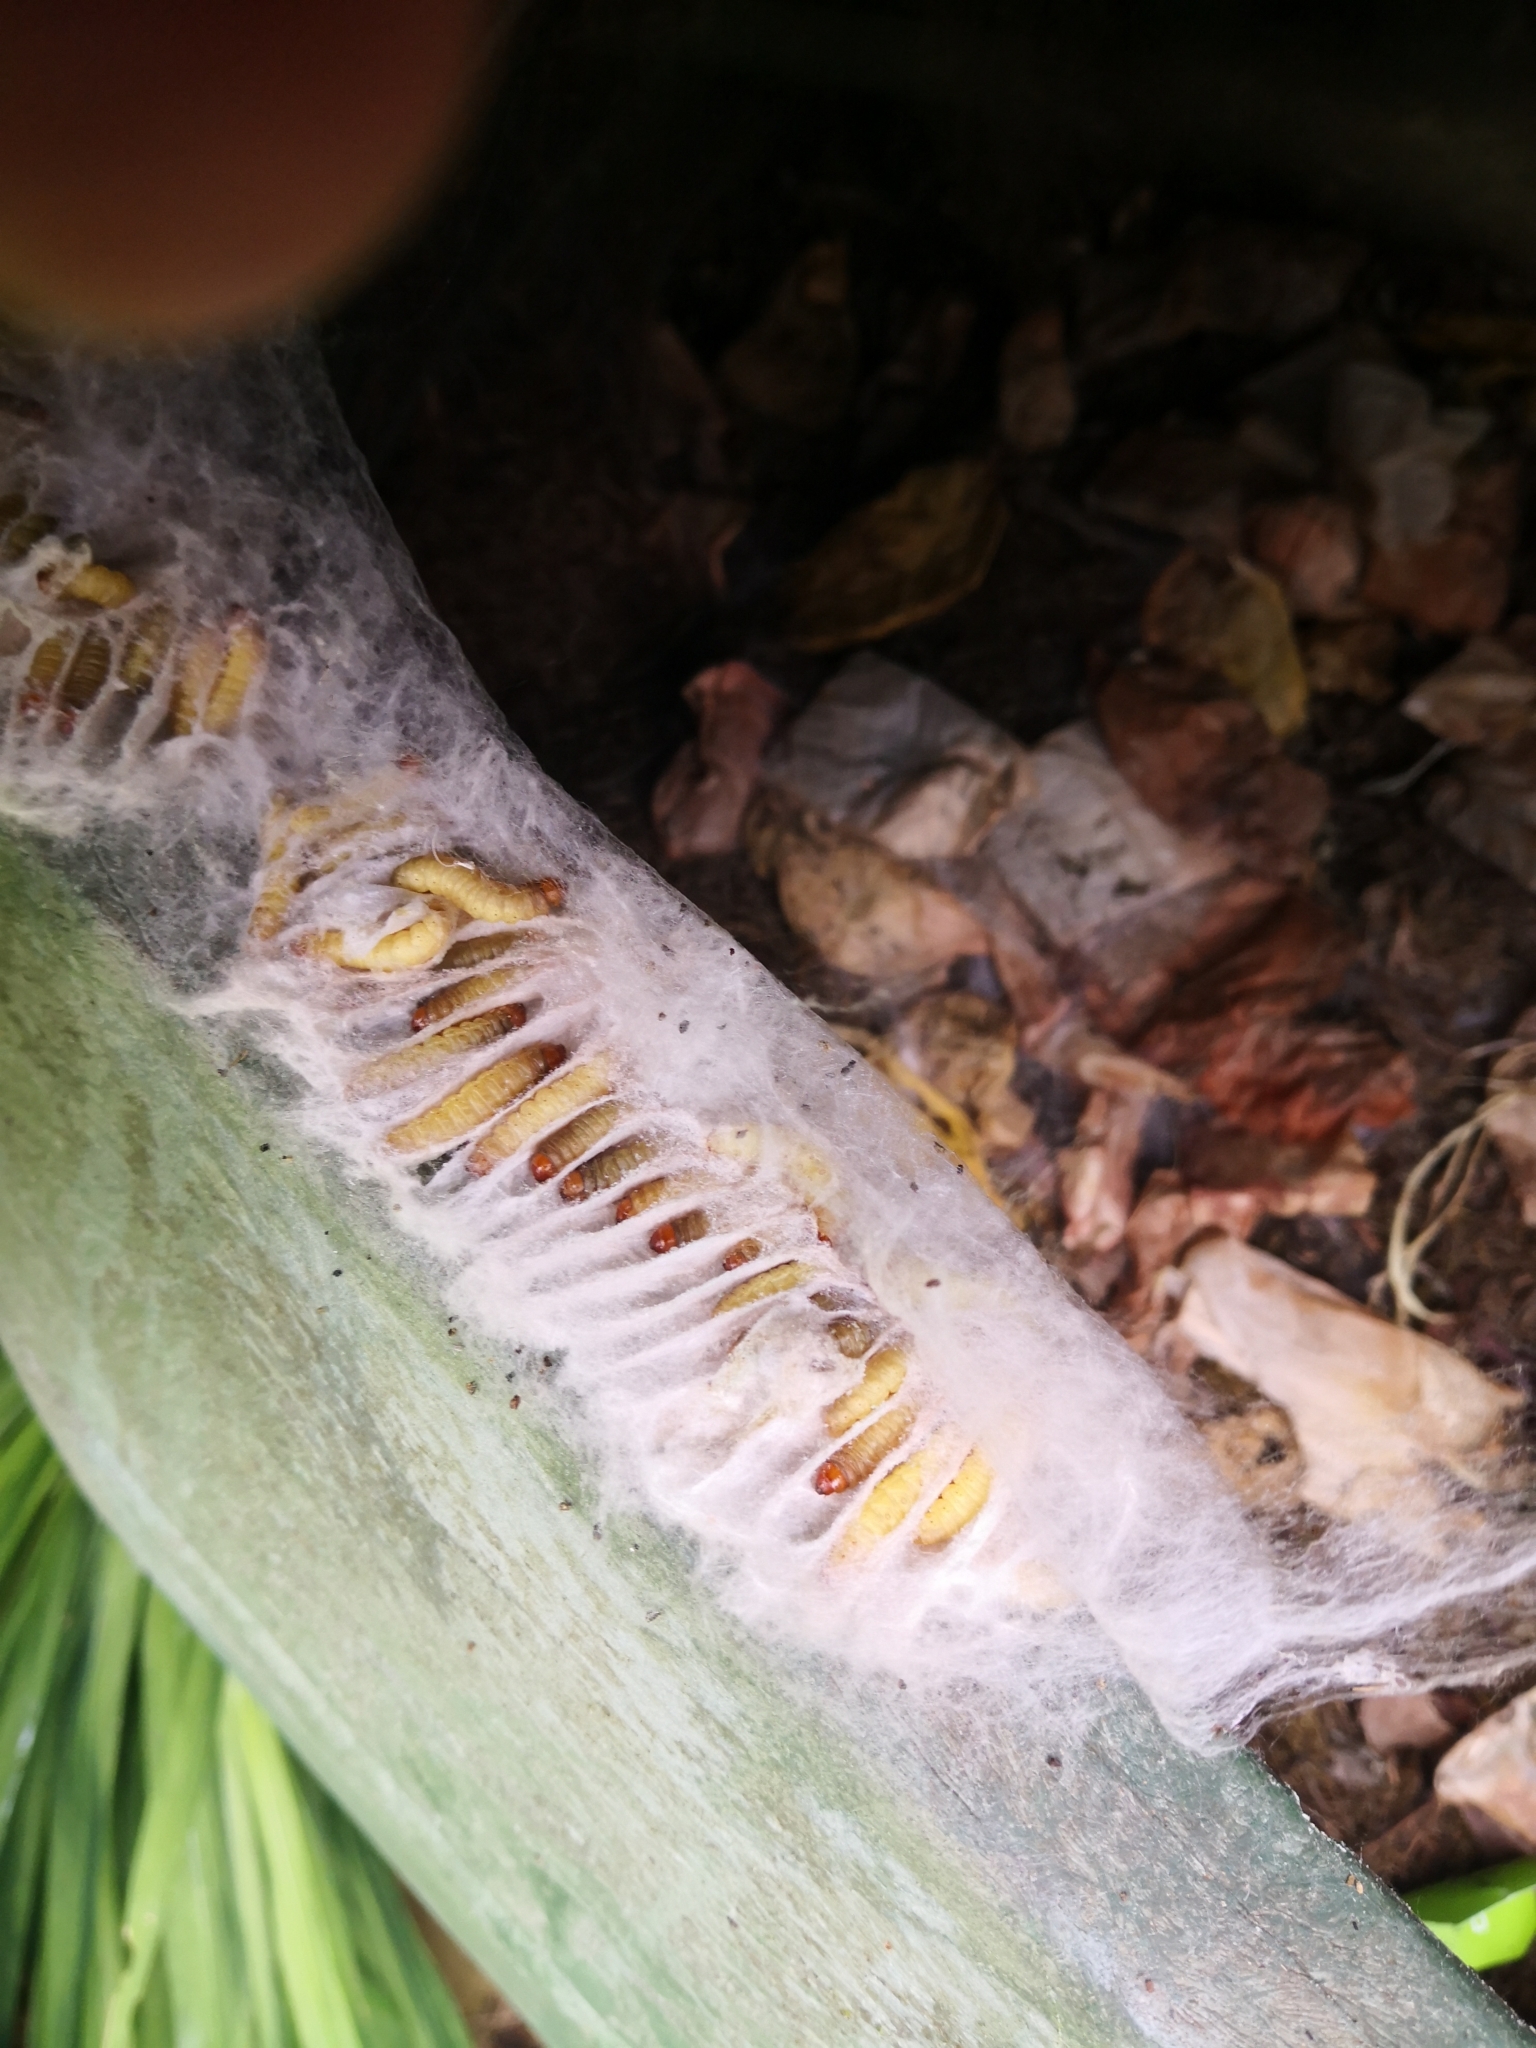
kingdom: Animalia
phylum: Arthropoda
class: Insecta
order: Hymenoptera
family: Apidae
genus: Bombus
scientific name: Bombus hypnorum
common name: New garden bumblebee
